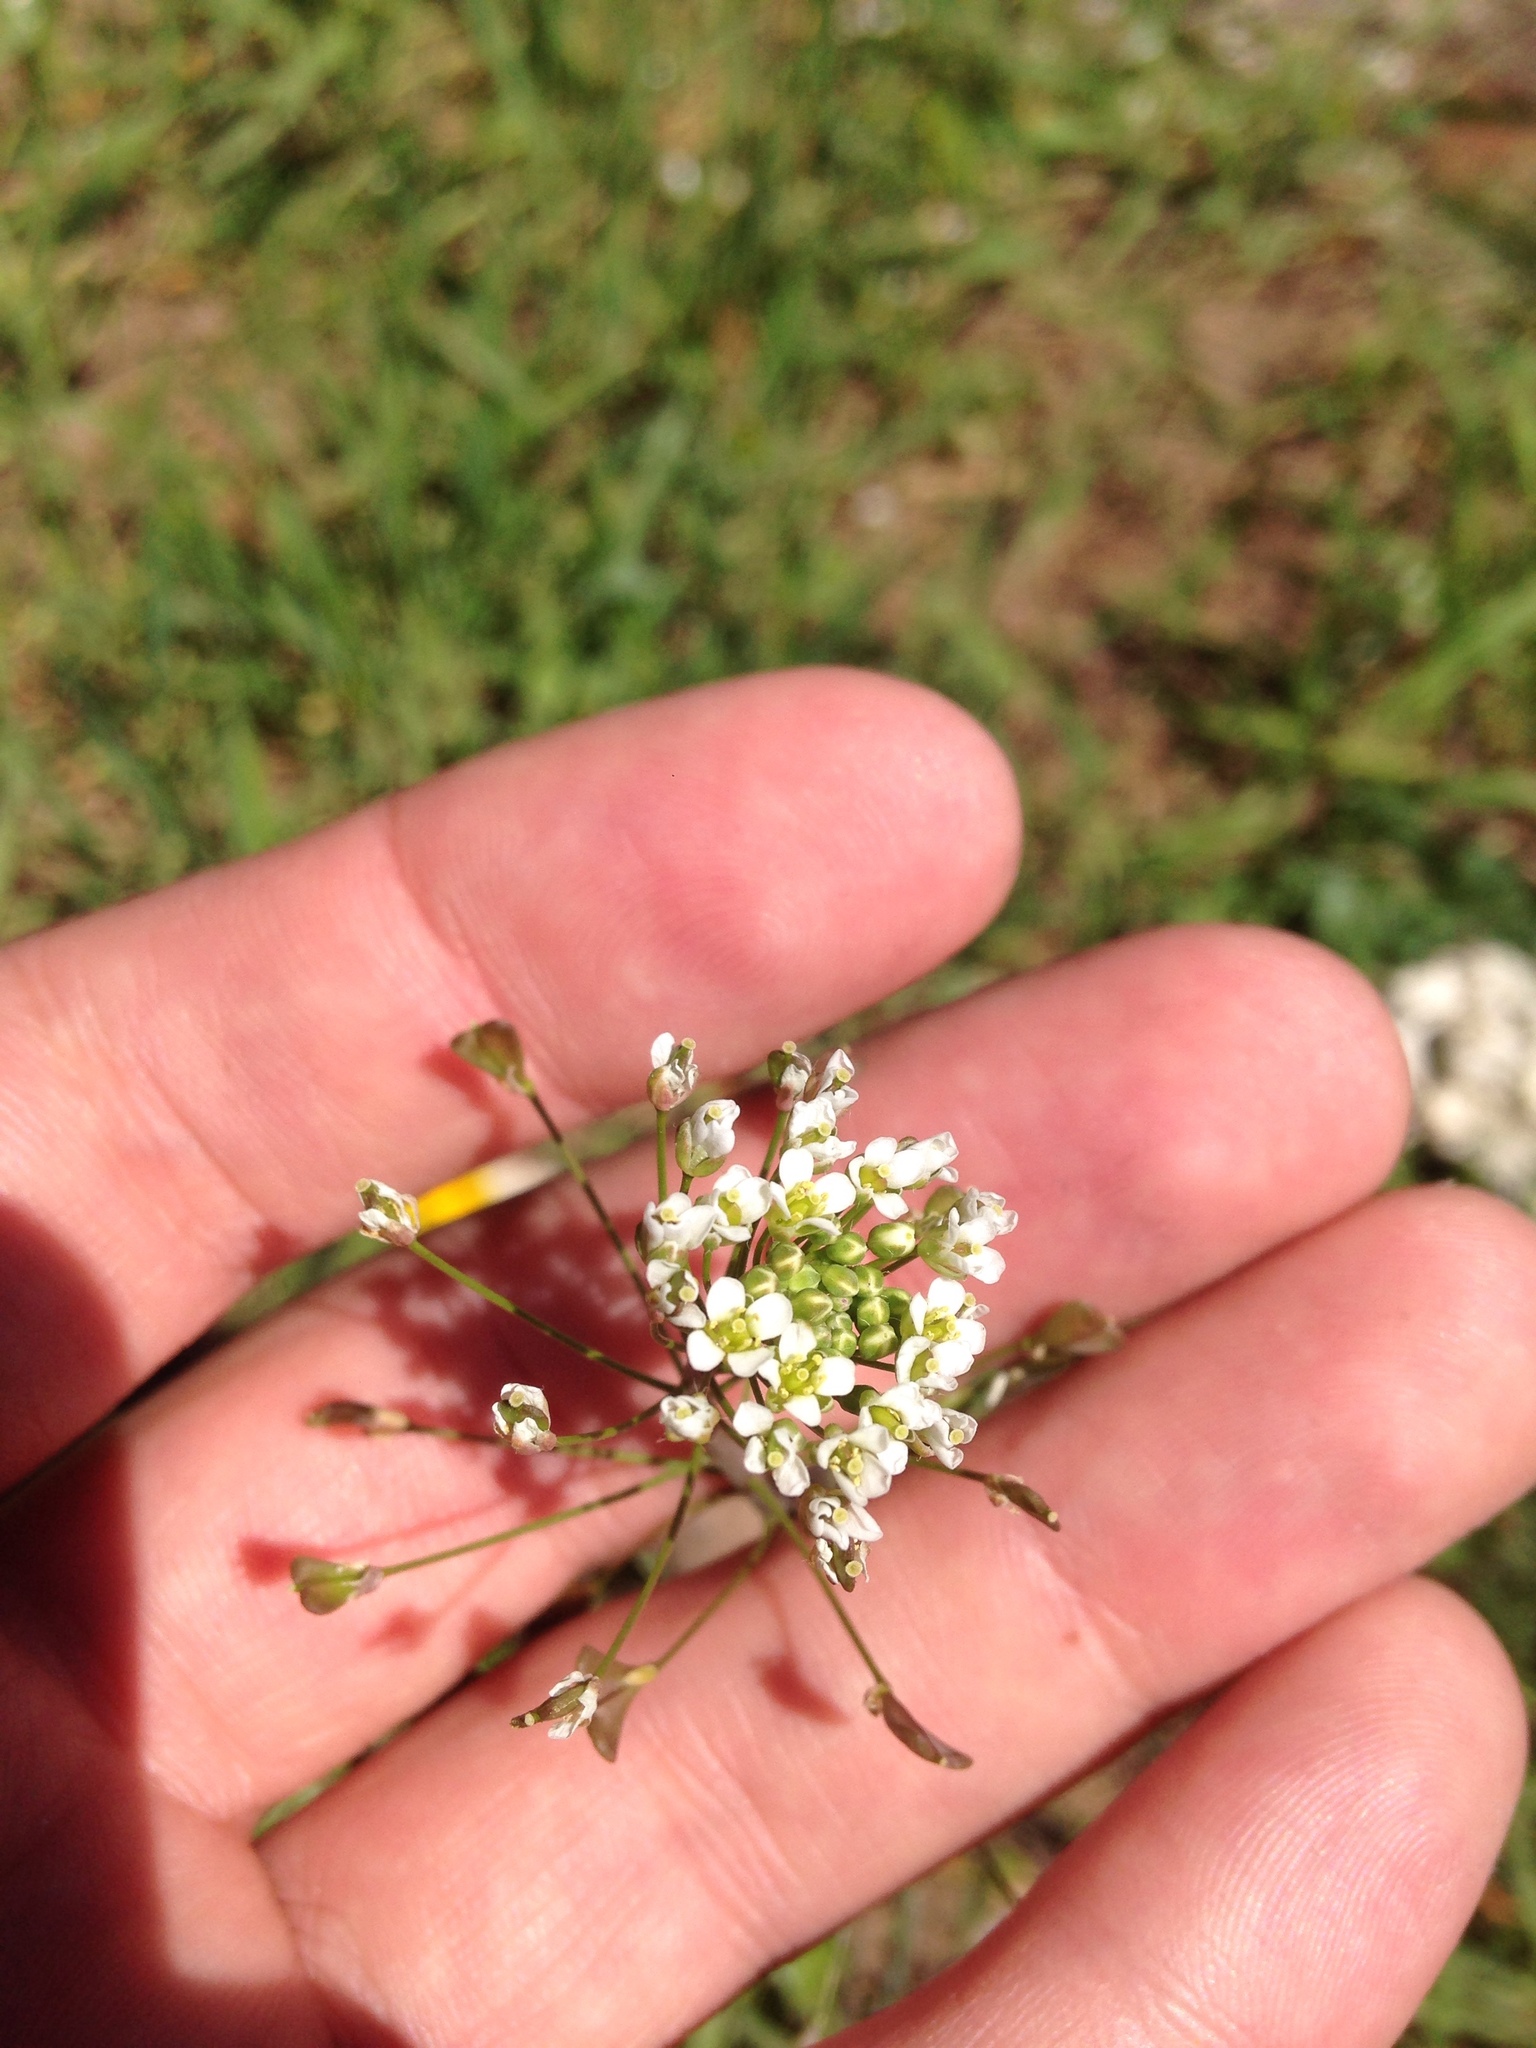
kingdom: Plantae
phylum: Tracheophyta
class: Magnoliopsida
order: Brassicales
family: Brassicaceae
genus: Capsella
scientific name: Capsella bursa-pastoris
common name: Shepherd's purse
